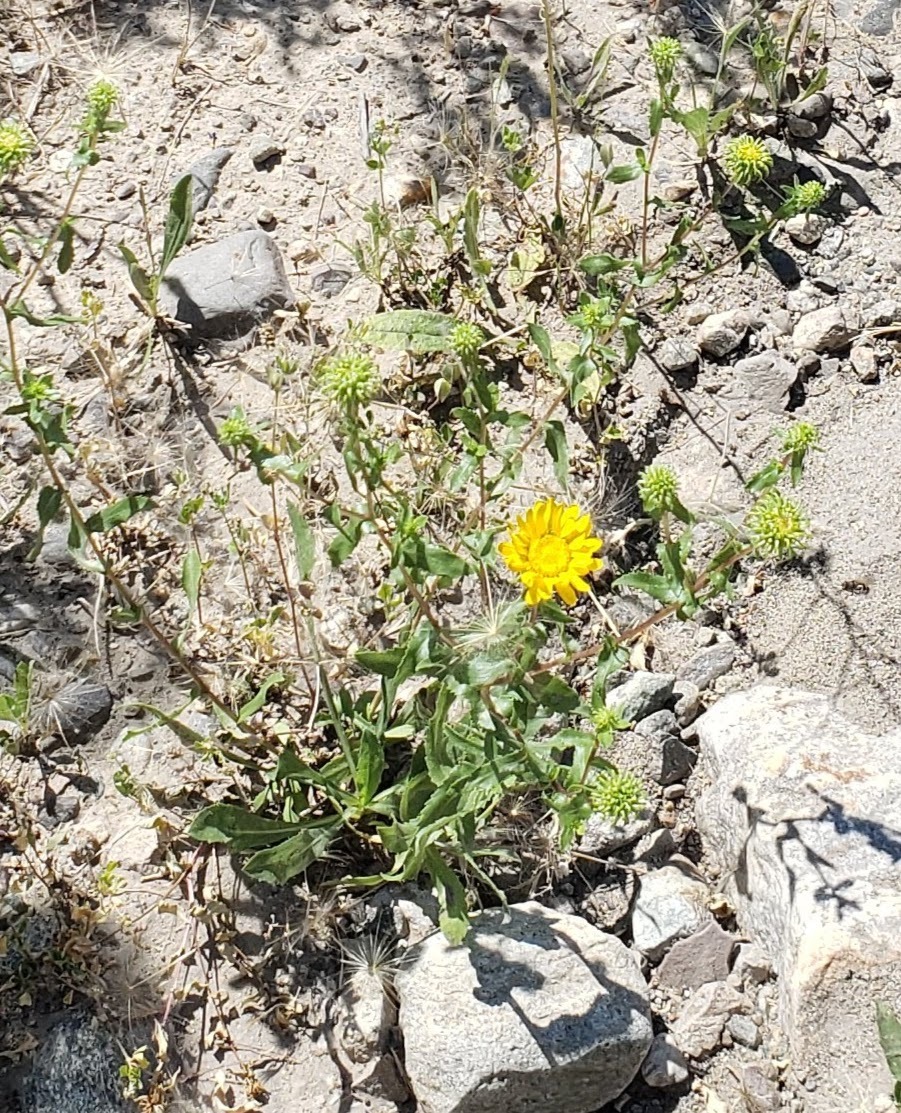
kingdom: Plantae
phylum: Tracheophyta
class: Magnoliopsida
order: Asterales
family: Asteraceae
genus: Grindelia
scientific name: Grindelia squarrosa
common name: Curly-cup gumweed
